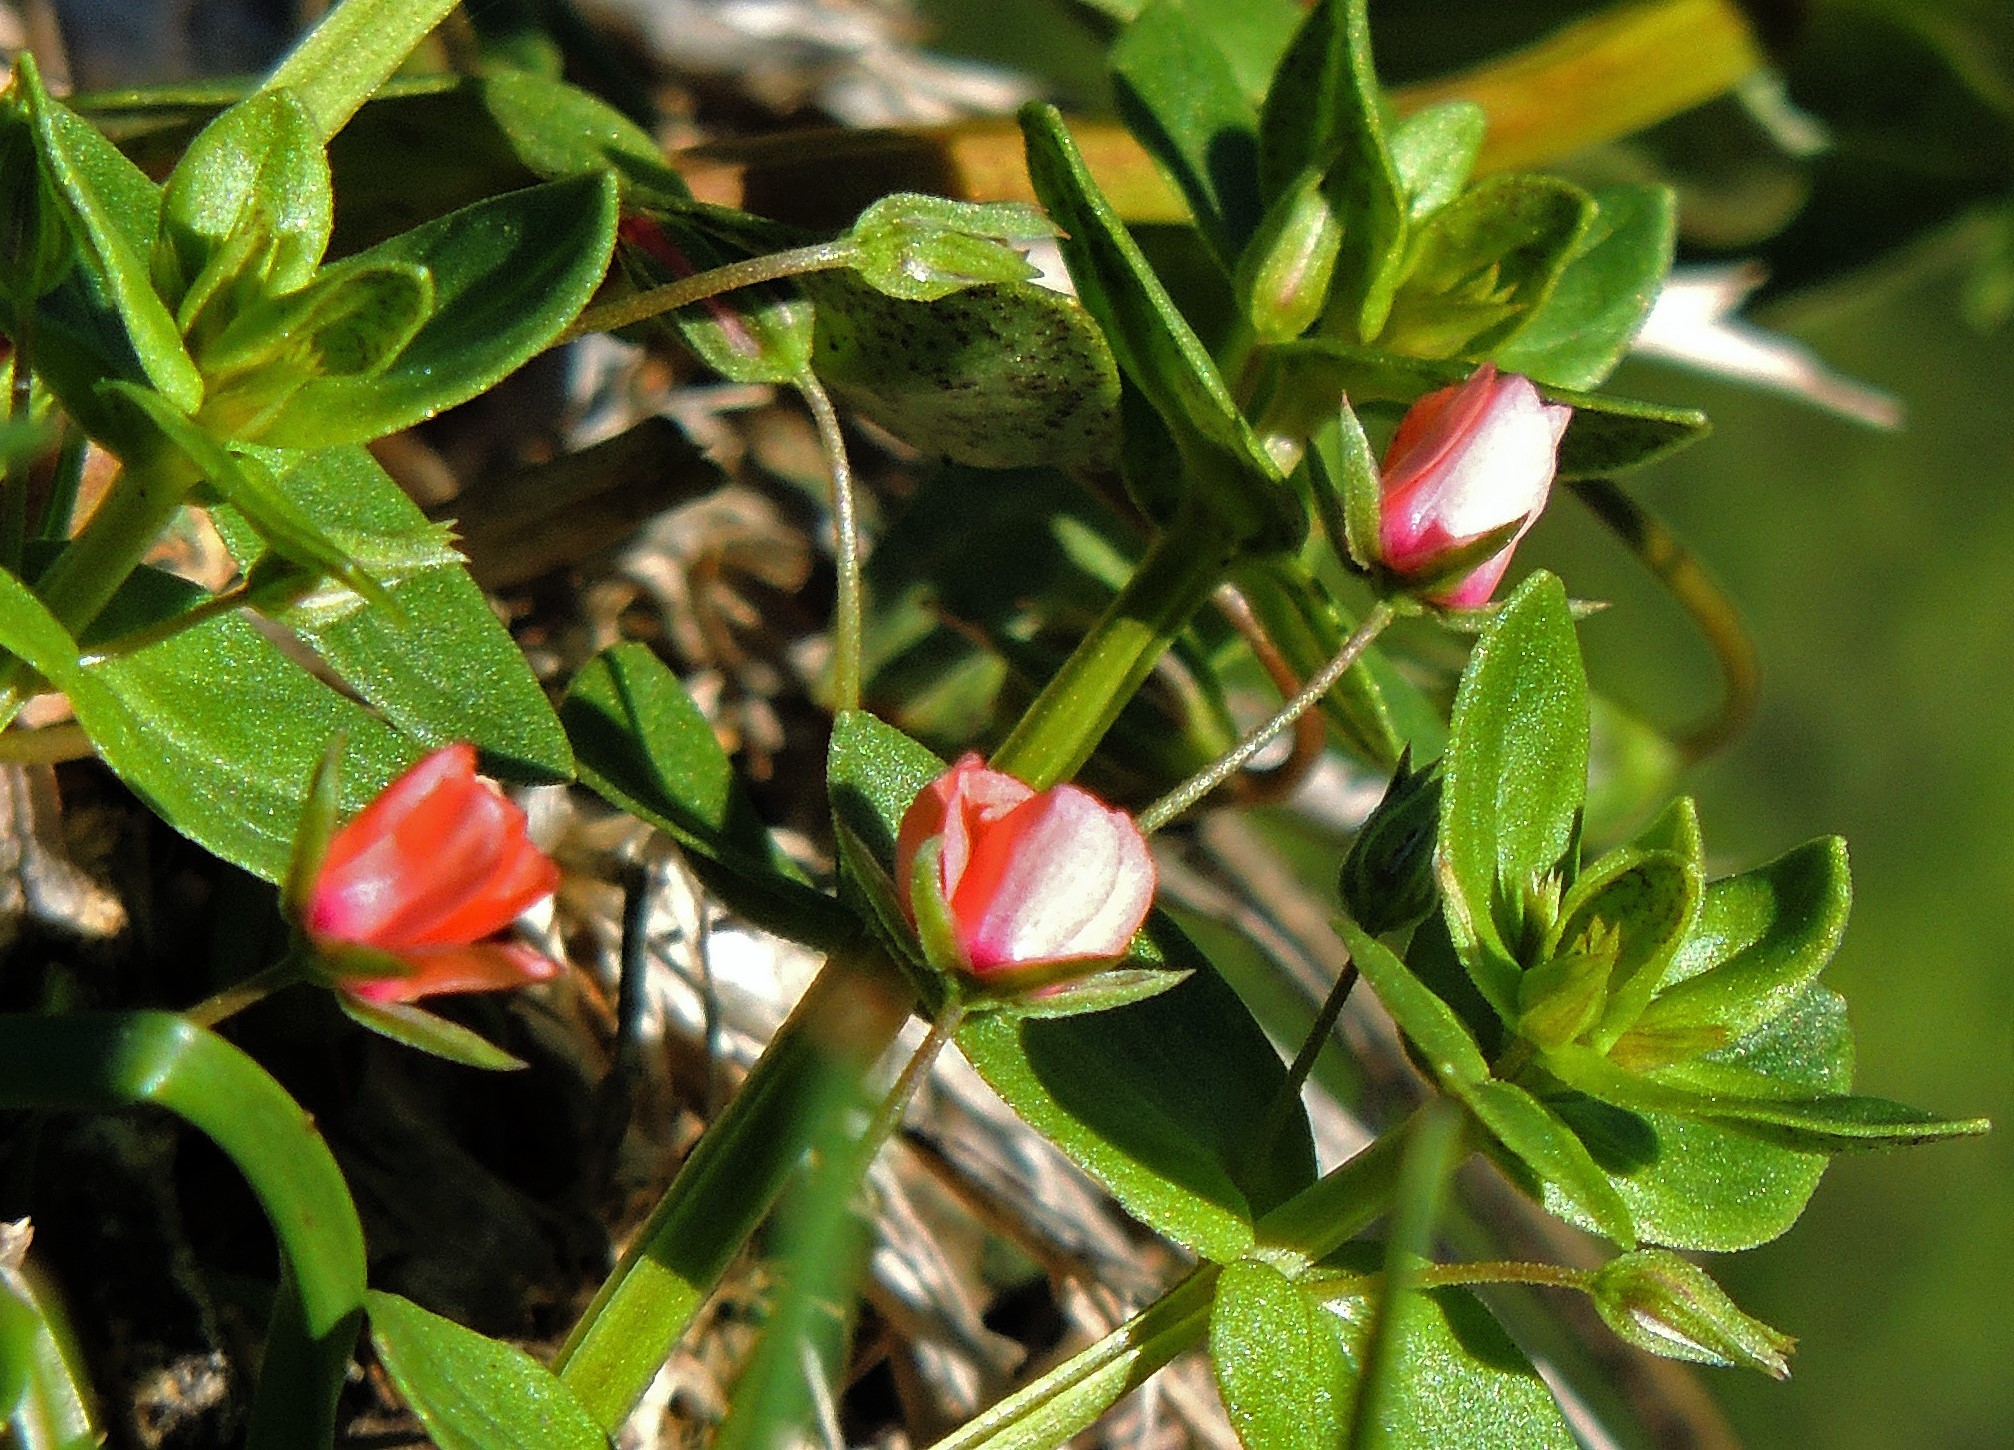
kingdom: Plantae
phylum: Tracheophyta
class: Magnoliopsida
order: Ericales
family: Primulaceae
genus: Lysimachia
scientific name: Lysimachia arvensis
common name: Scarlet pimpernel
